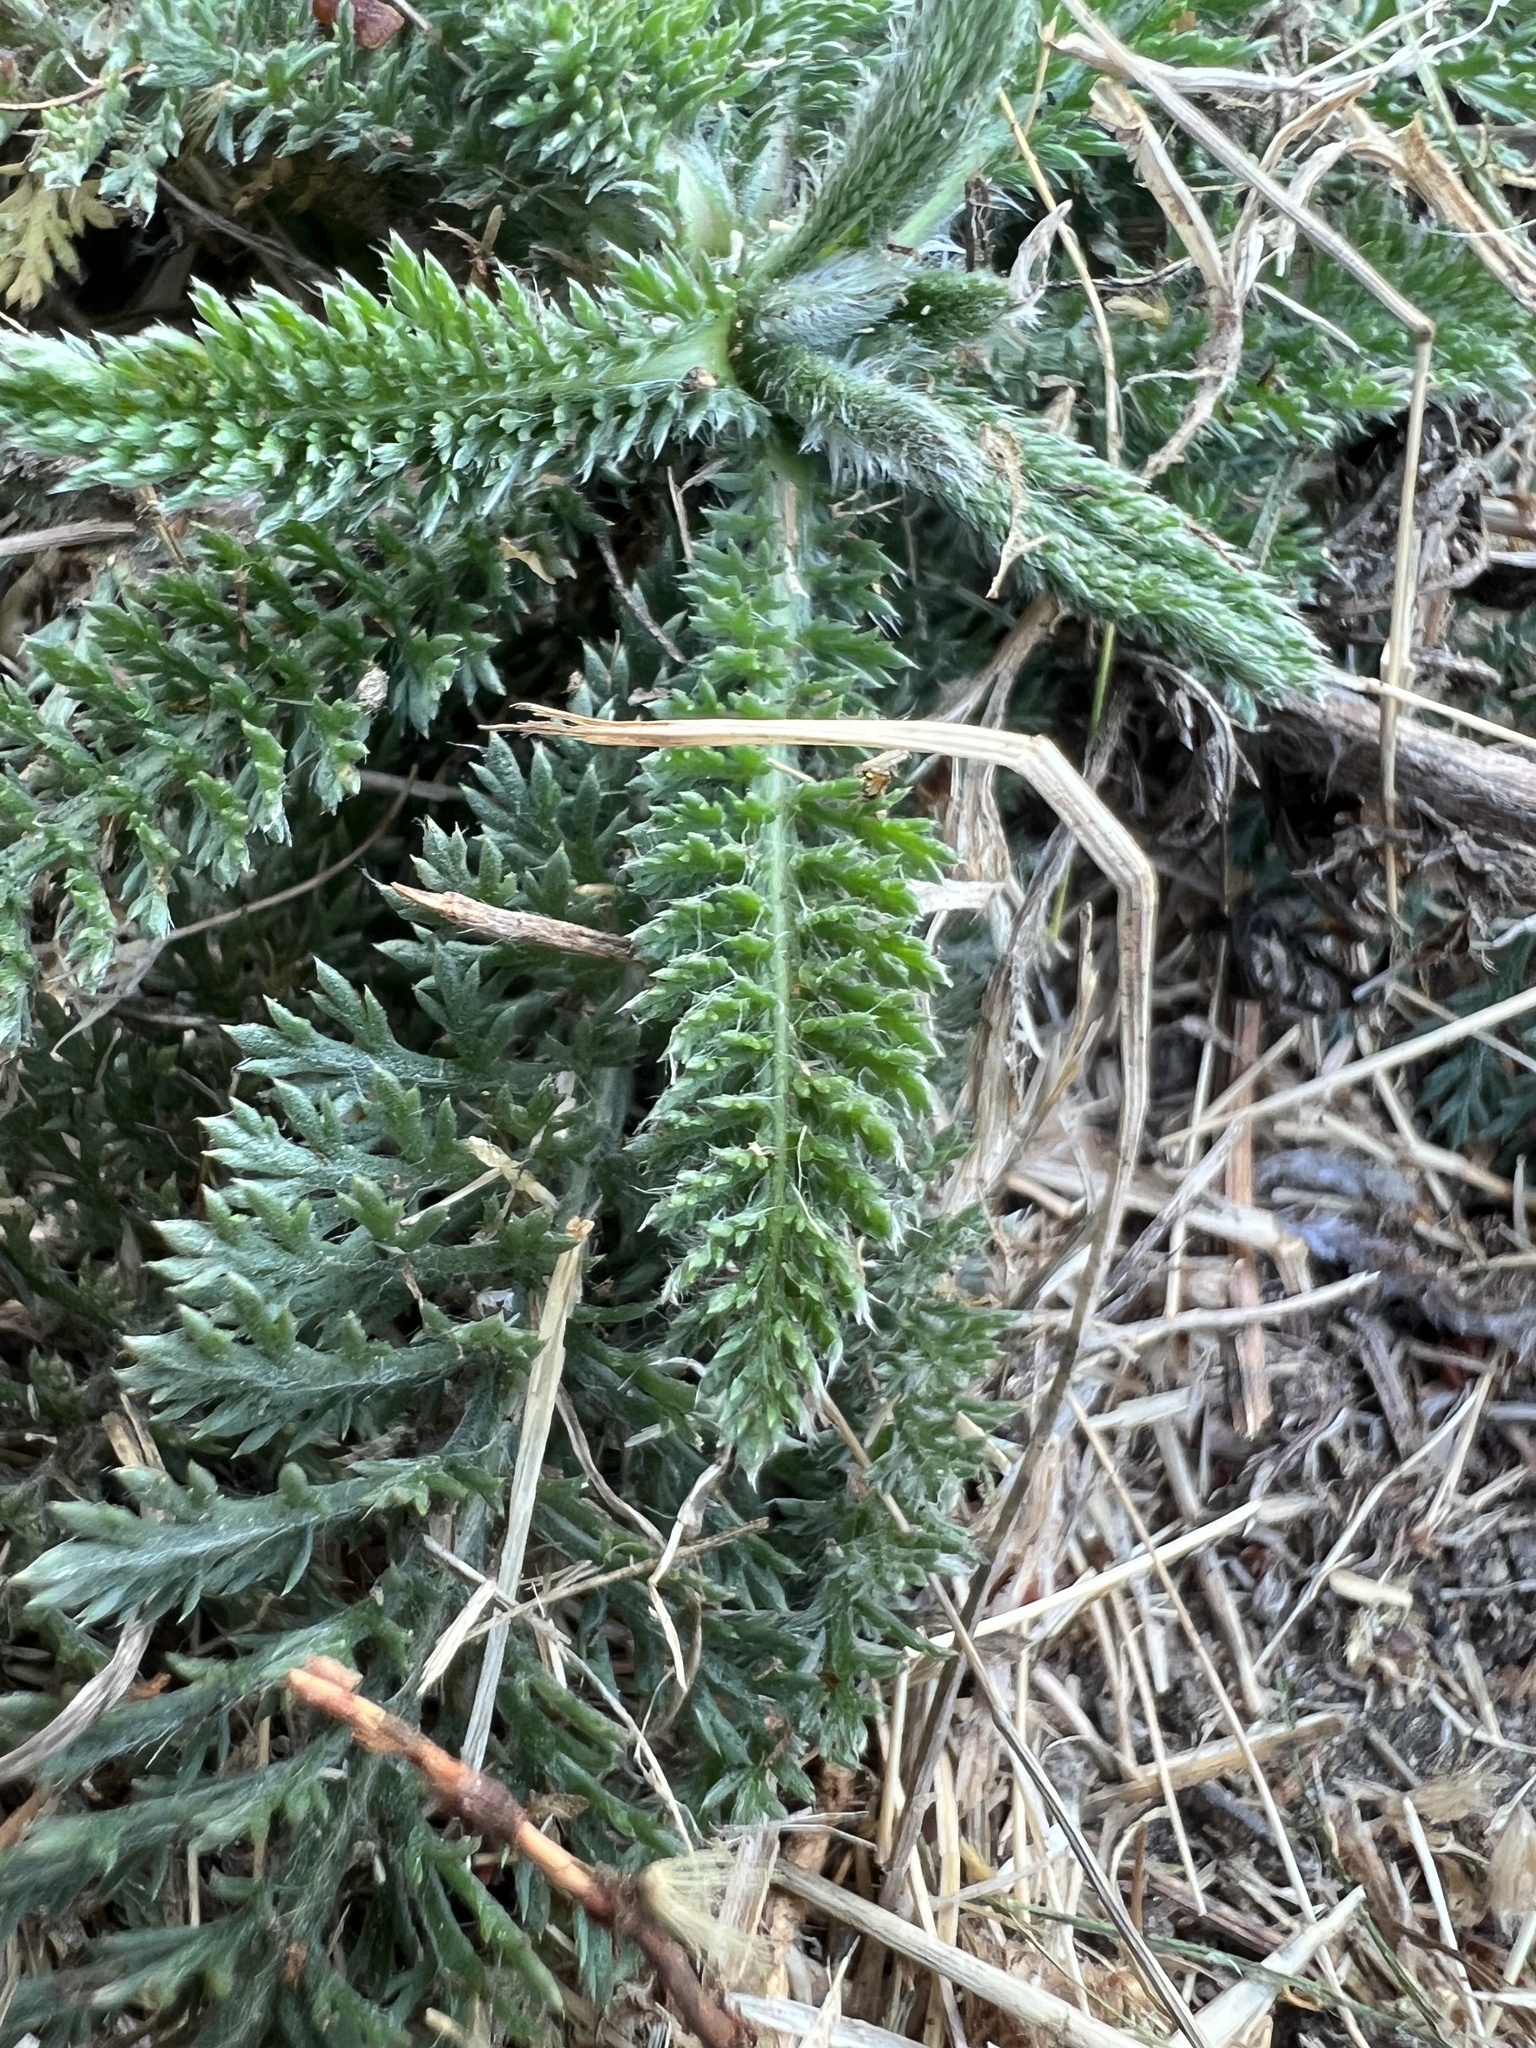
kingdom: Plantae
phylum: Tracheophyta
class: Magnoliopsida
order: Asterales
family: Asteraceae
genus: Achillea
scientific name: Achillea millefolium
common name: Yarrow
